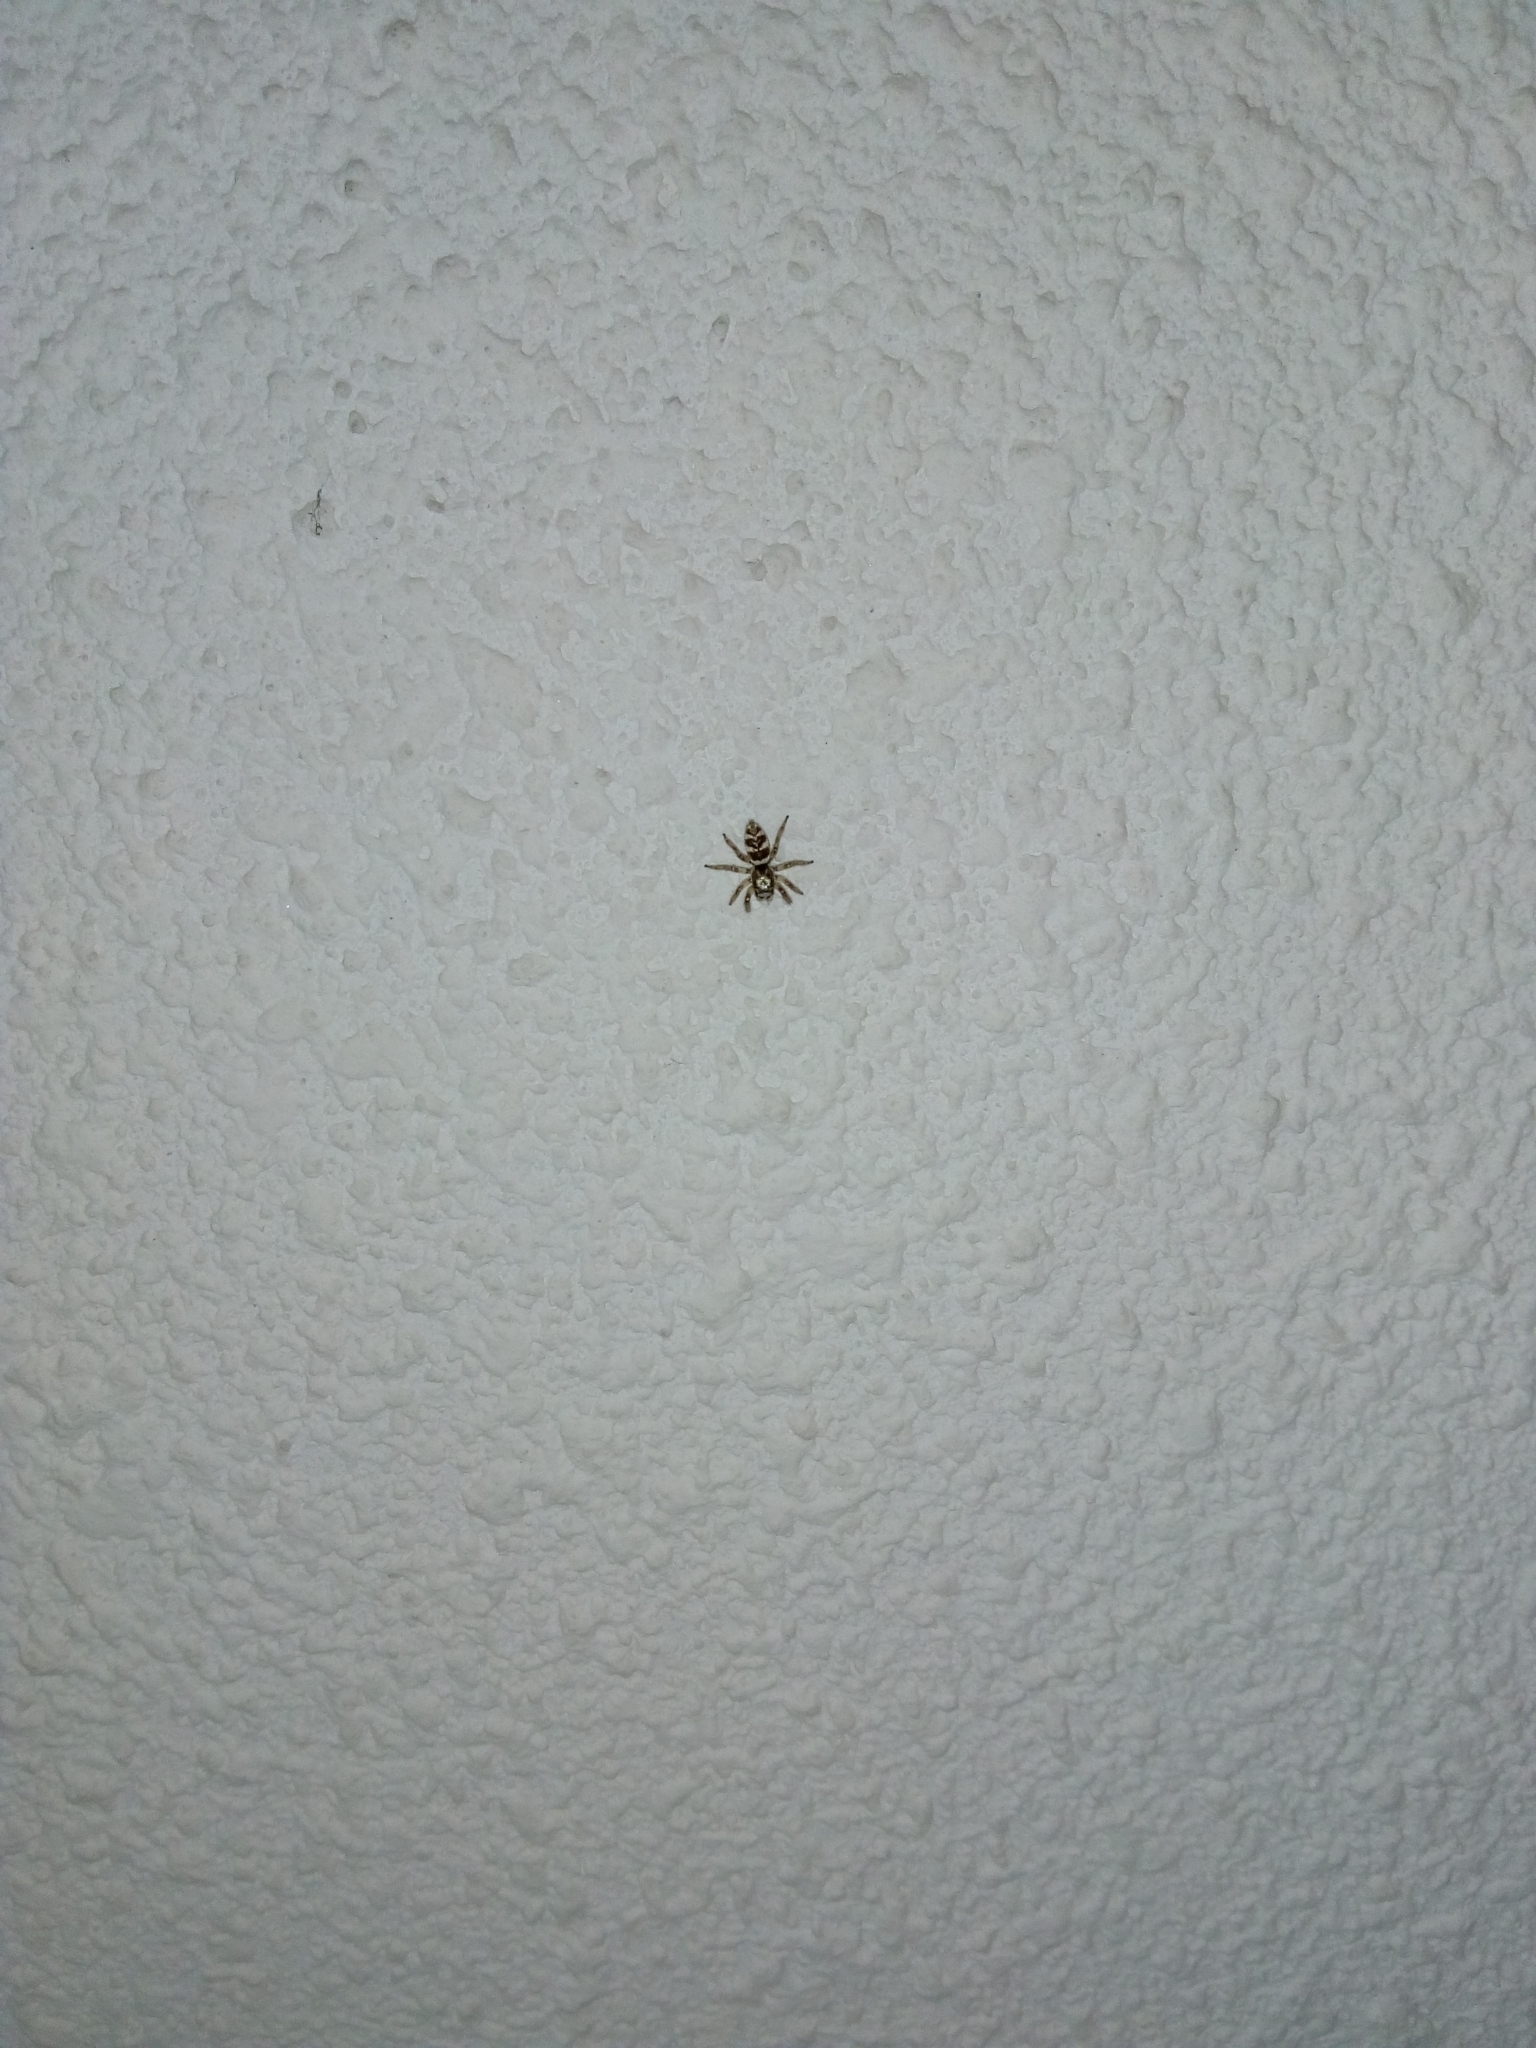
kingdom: Animalia
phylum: Arthropoda
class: Arachnida
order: Araneae
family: Salticidae
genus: Salticus
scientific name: Salticus scenicus
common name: Zebra jumper
